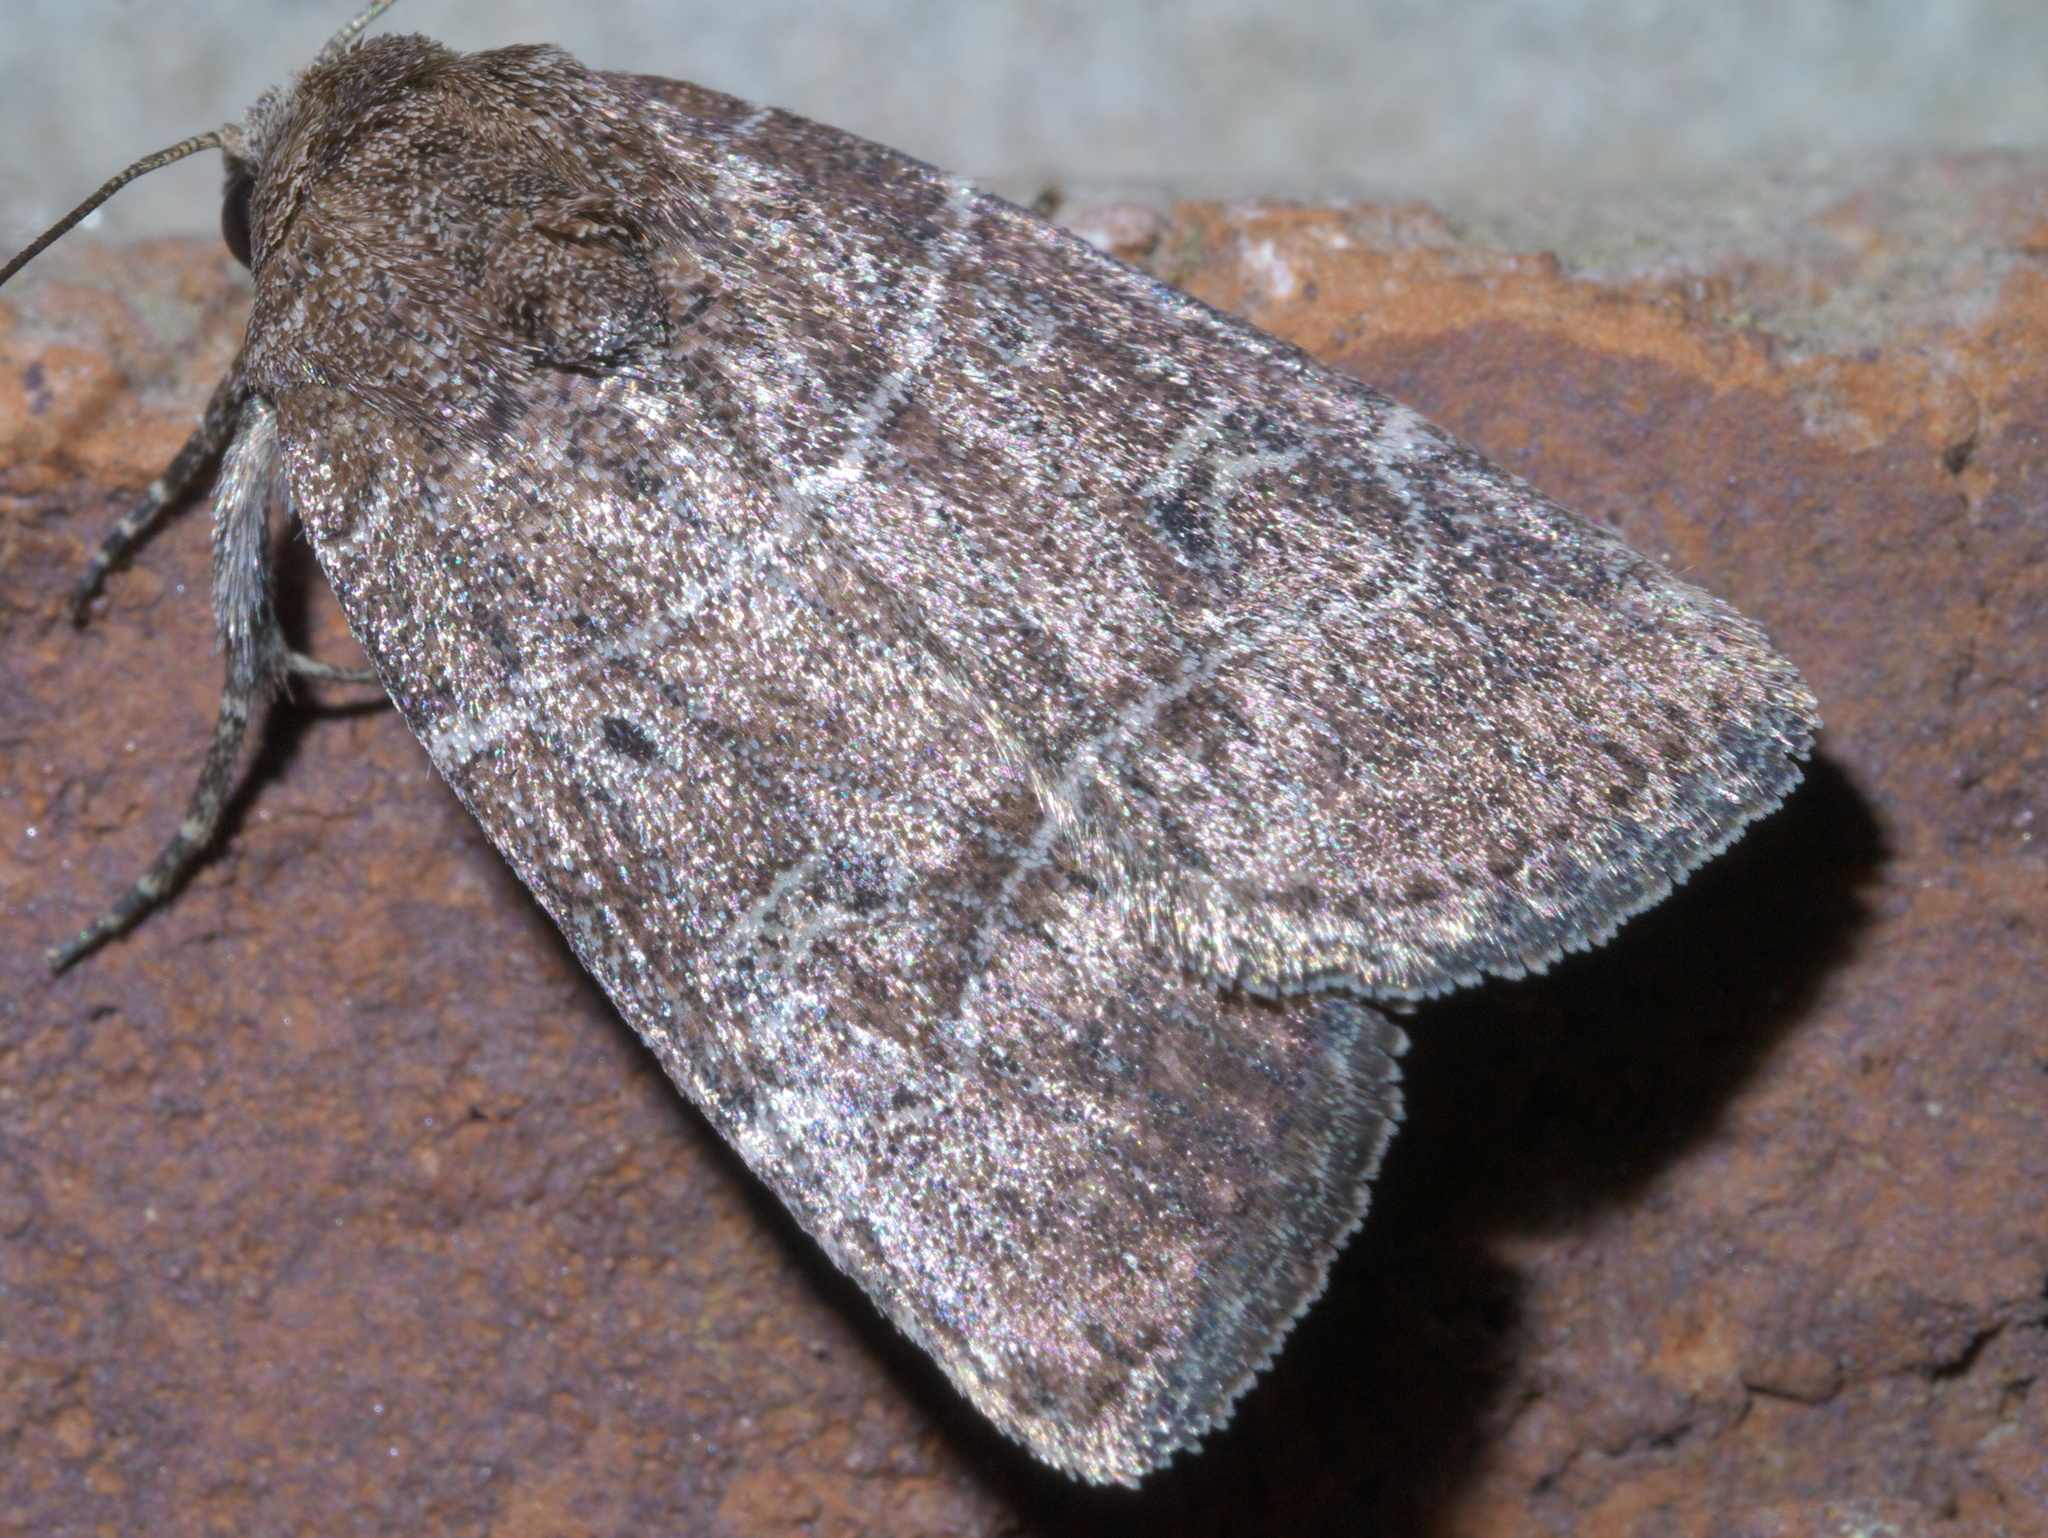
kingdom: Animalia
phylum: Arthropoda
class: Insecta
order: Lepidoptera
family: Noctuidae
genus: Elaphria
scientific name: Elaphria grata
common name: Grateful midget moth
